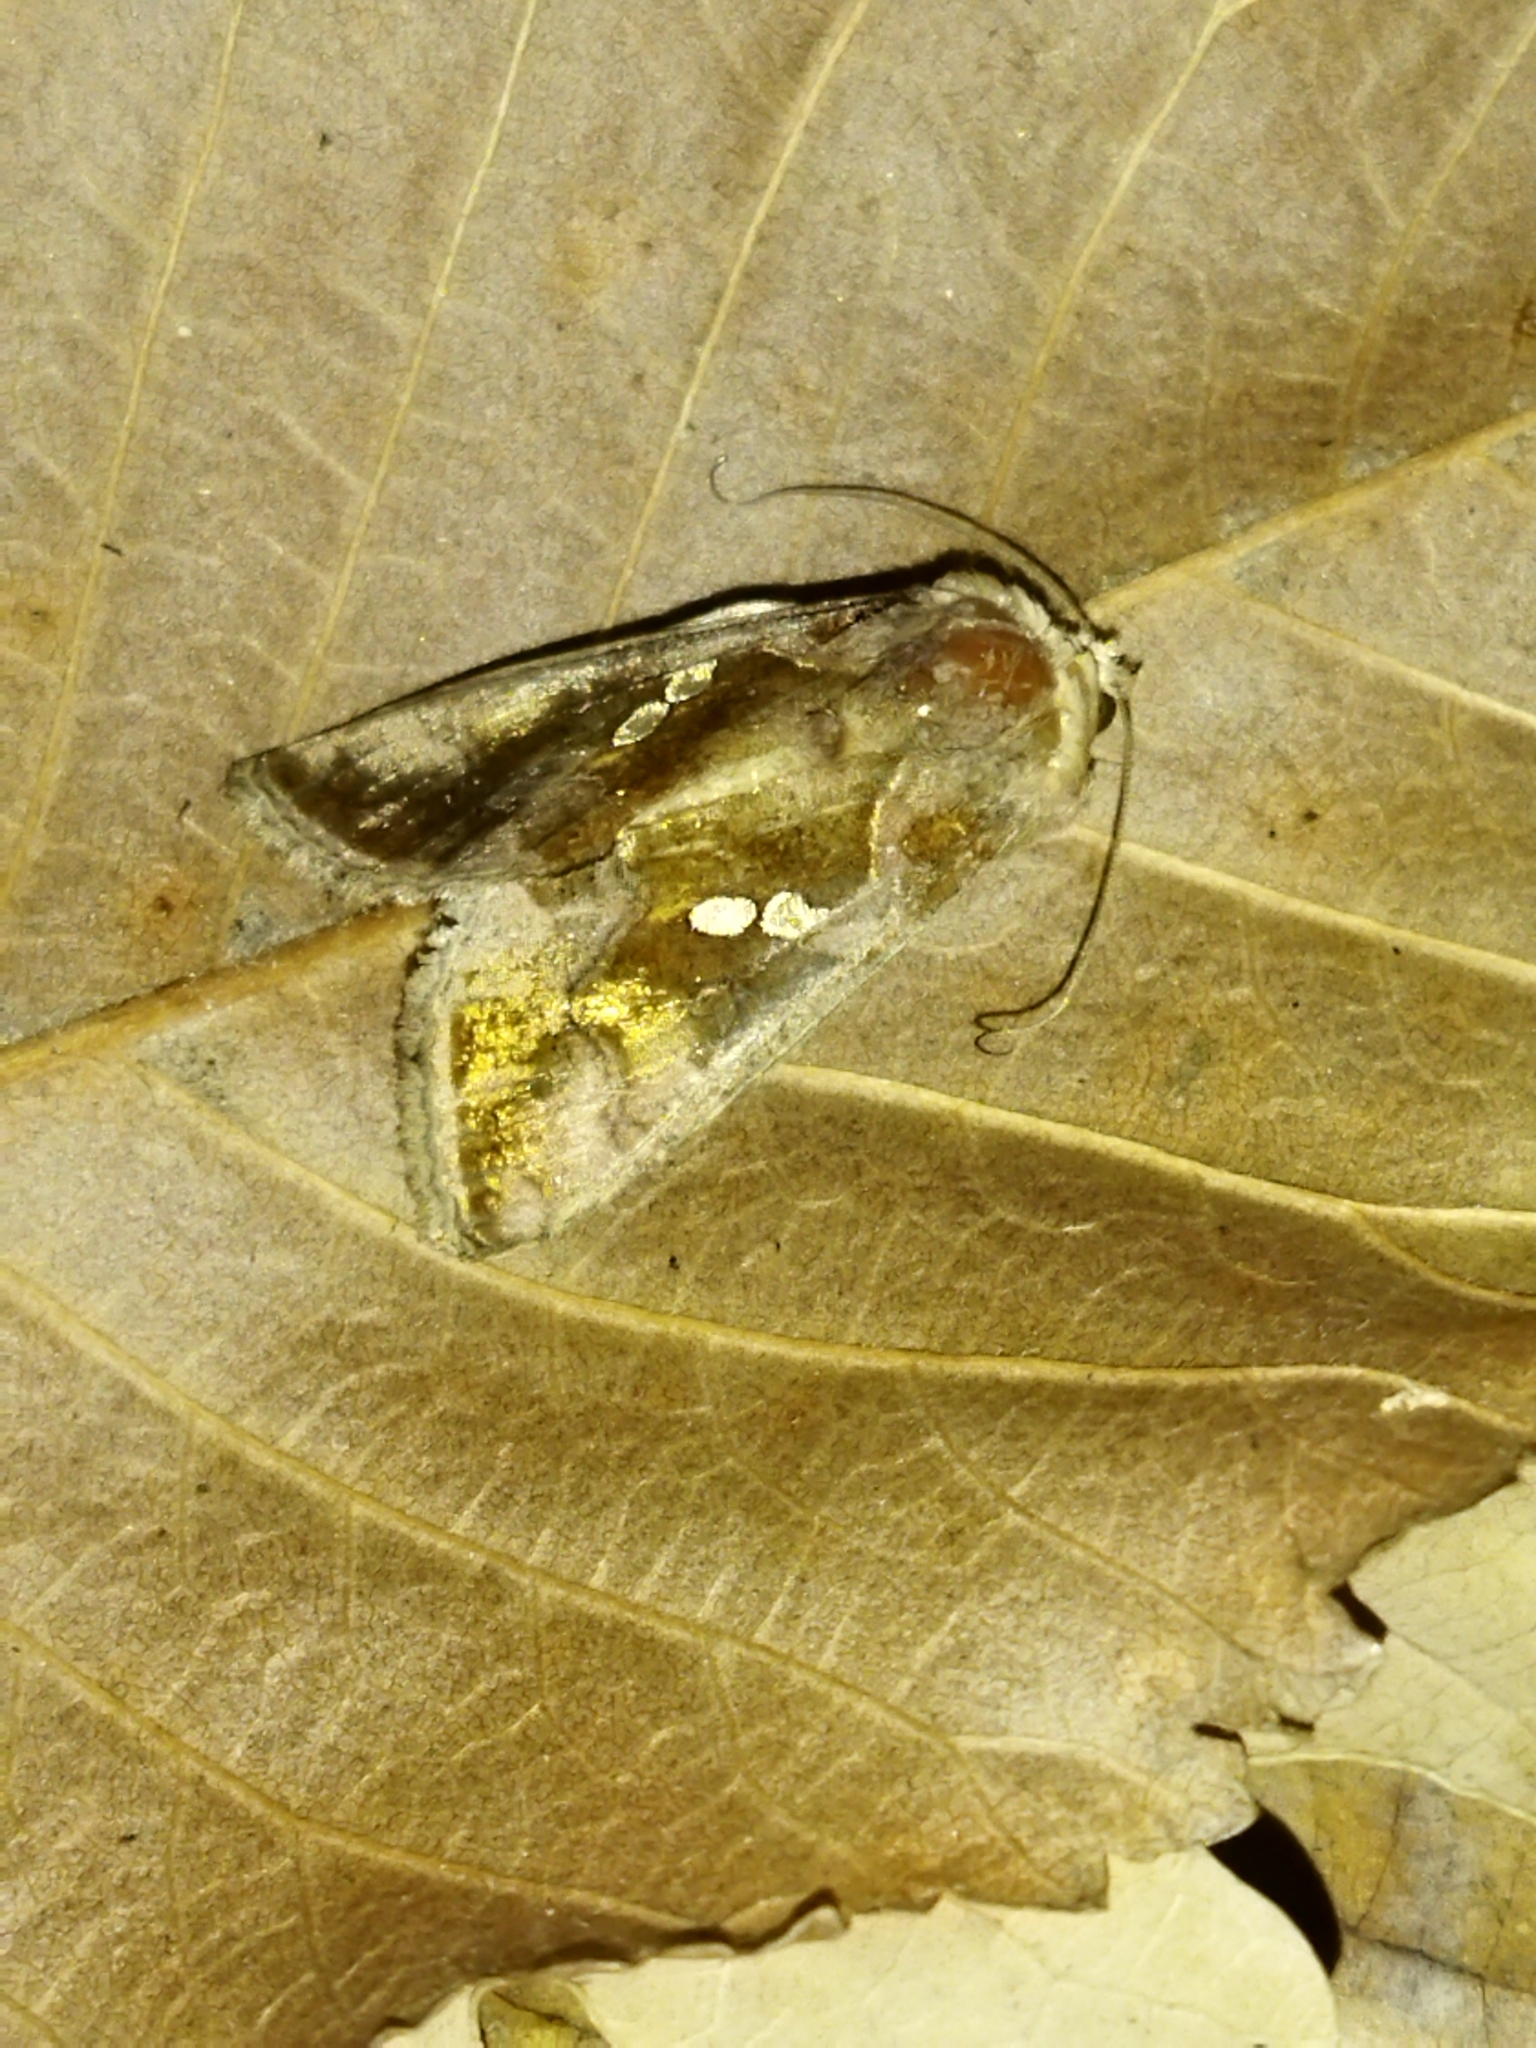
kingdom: Animalia
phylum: Arthropoda
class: Insecta
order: Lepidoptera
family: Noctuidae
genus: Chrysodeixis
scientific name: Chrysodeixis chalcites
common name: Golden twin-spot
